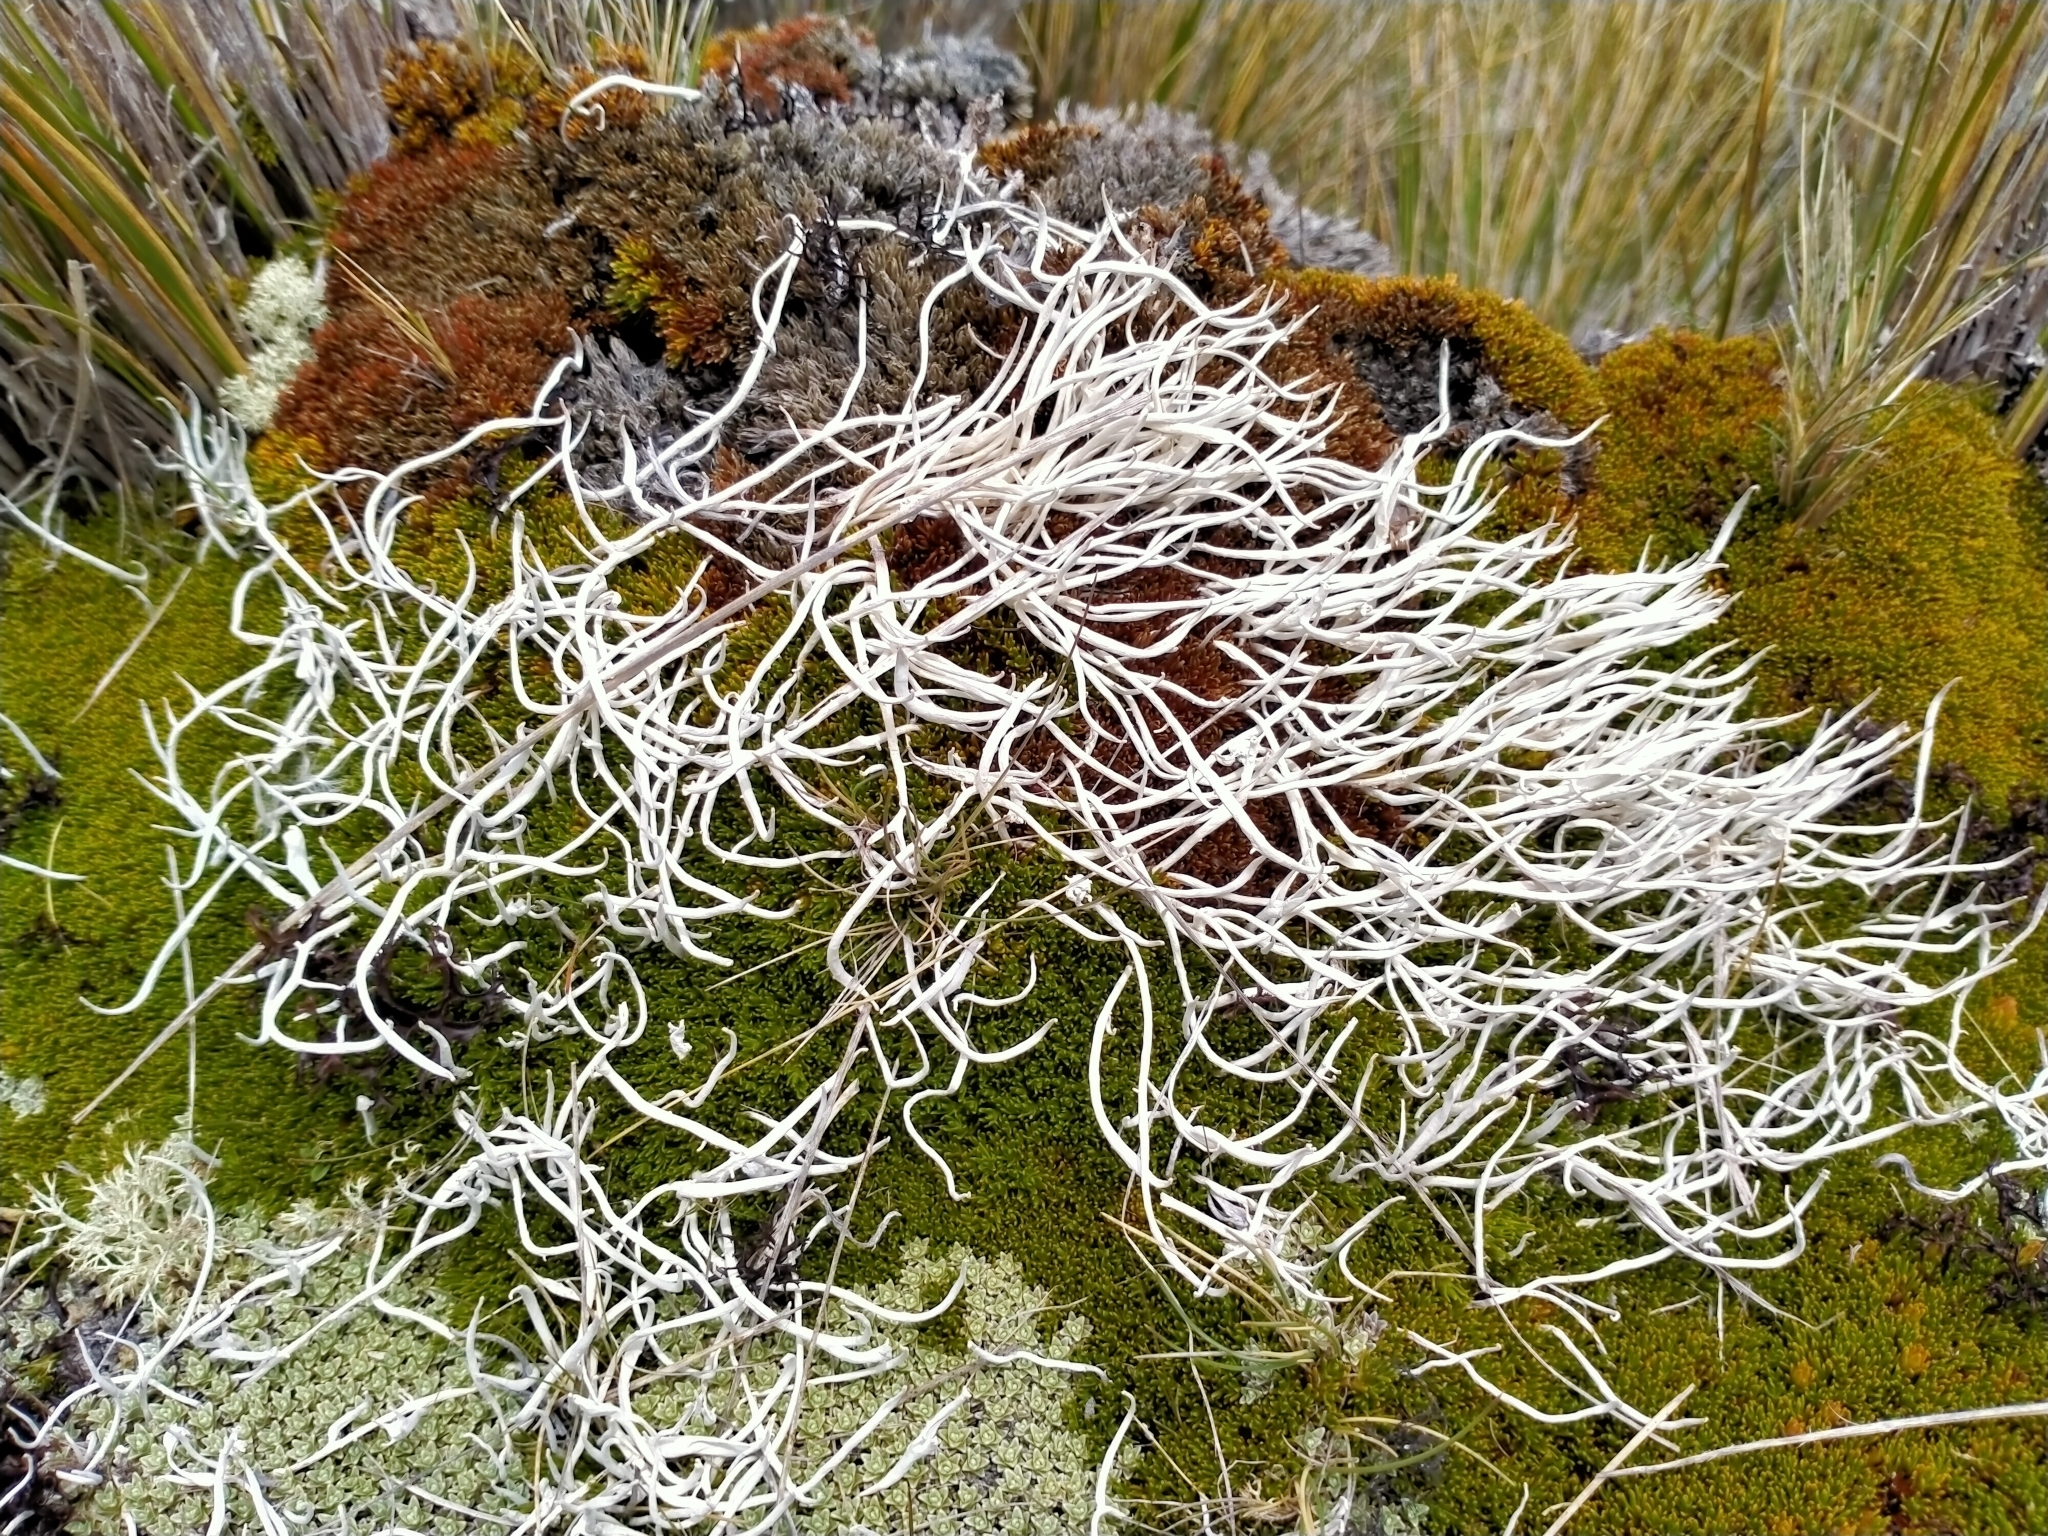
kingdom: Fungi
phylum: Ascomycota
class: Lecanoromycetes
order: Pertusariales
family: Icmadophilaceae
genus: Thamnolia
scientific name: Thamnolia vermicularis
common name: Whiteworm lichen
